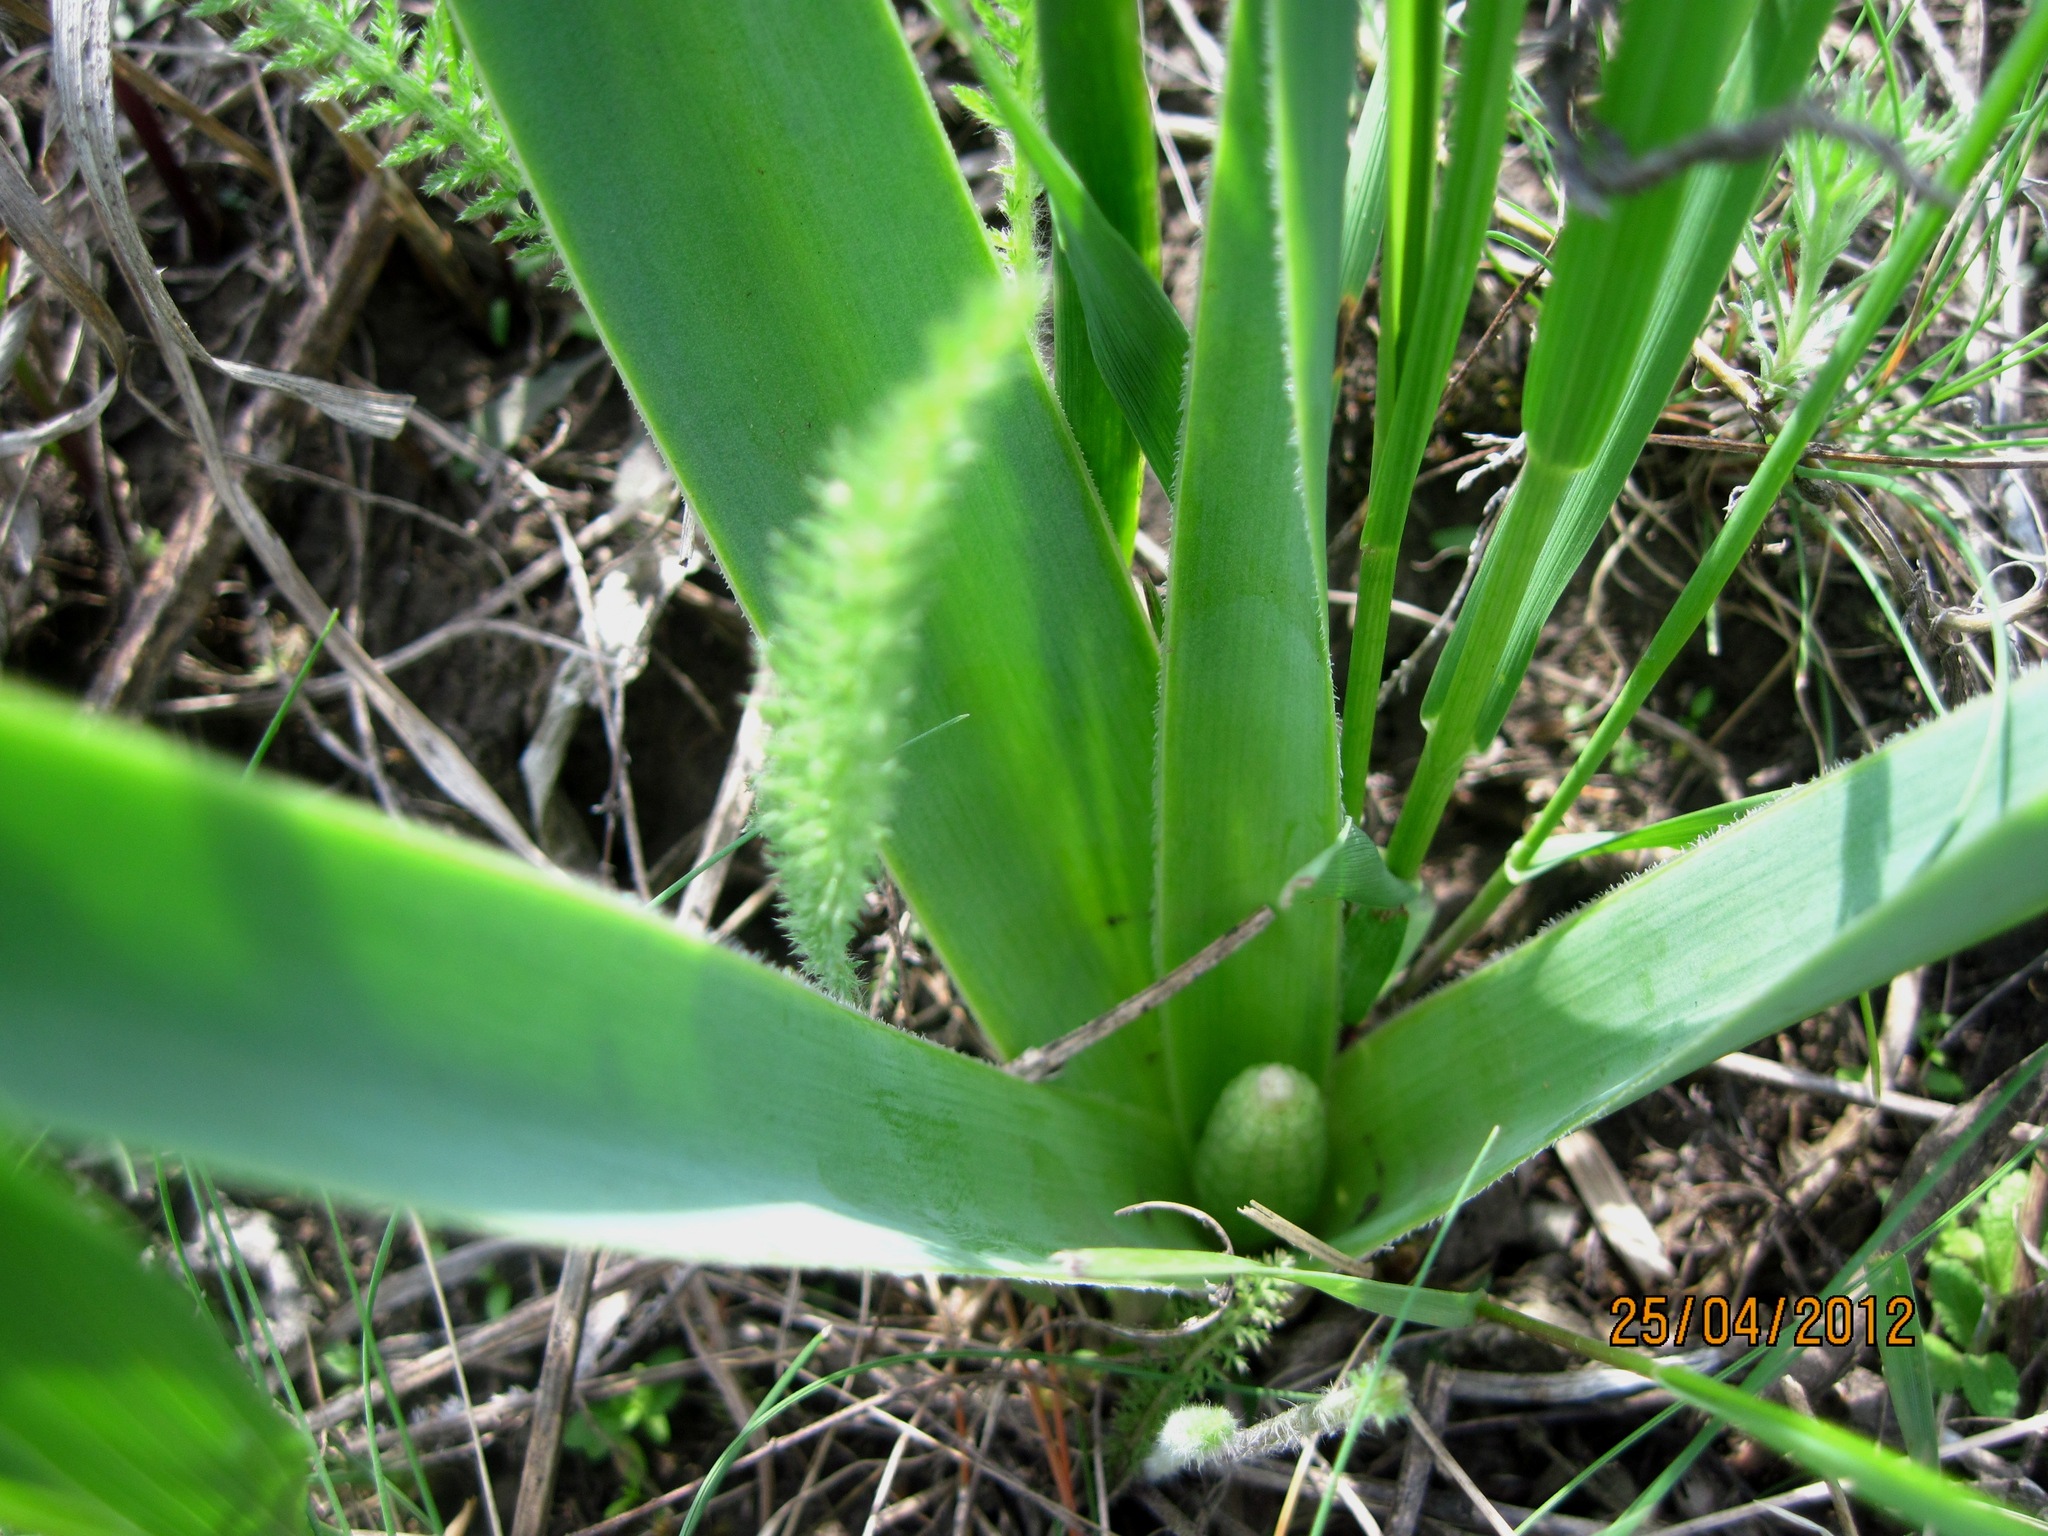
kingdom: Plantae
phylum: Tracheophyta
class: Liliopsida
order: Asparagales
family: Asparagaceae
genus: Bellevalia
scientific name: Bellevalia speciosa
